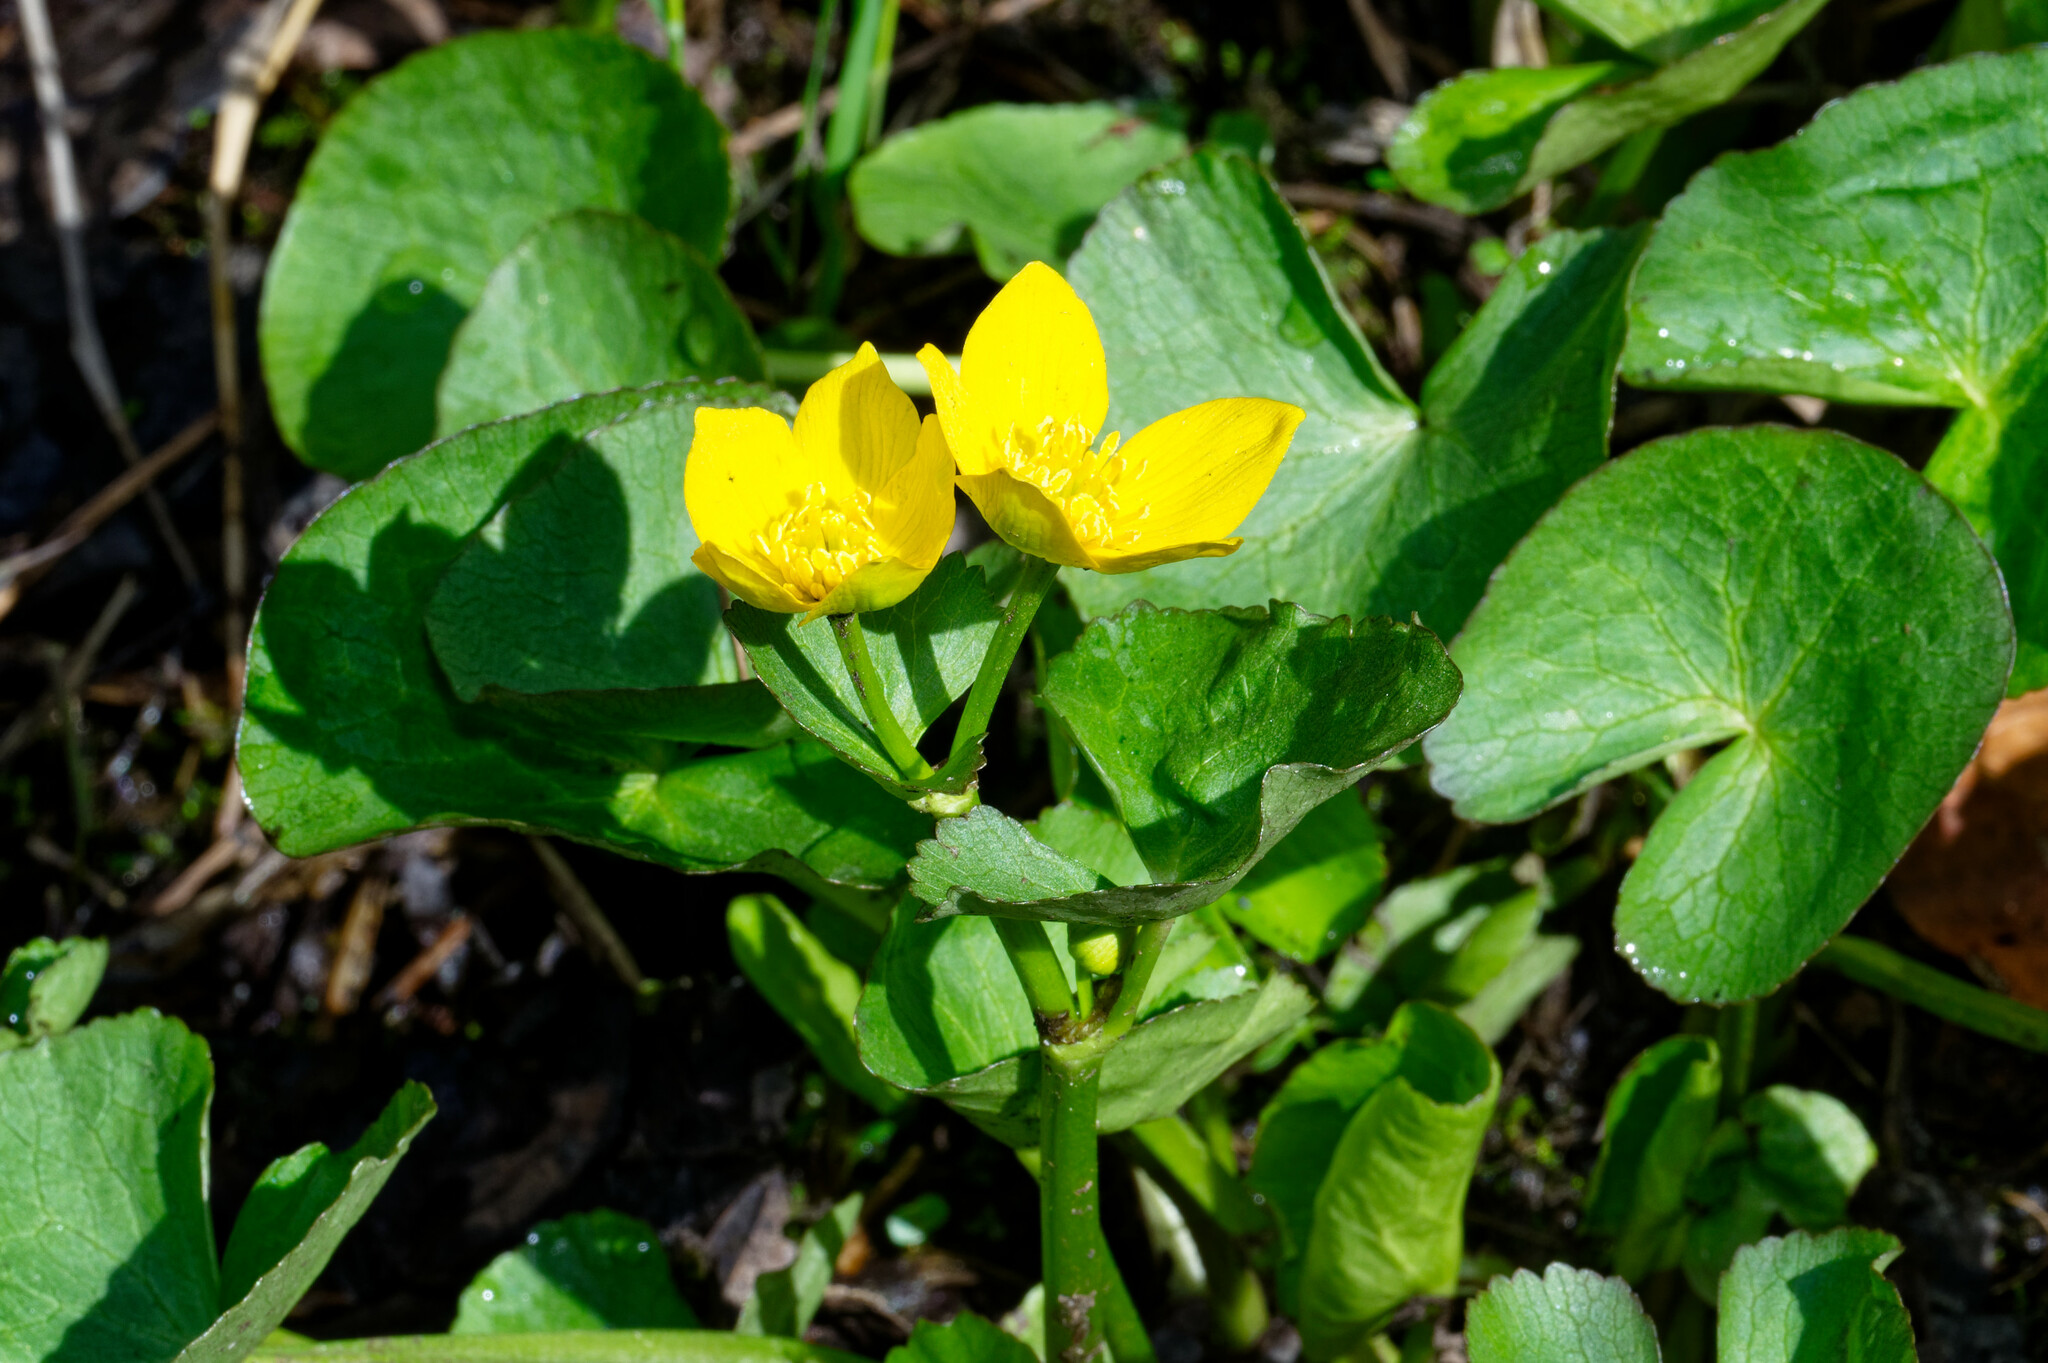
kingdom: Plantae
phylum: Tracheophyta
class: Magnoliopsida
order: Ranunculales
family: Ranunculaceae
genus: Caltha
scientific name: Caltha palustris
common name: Marsh marigold
